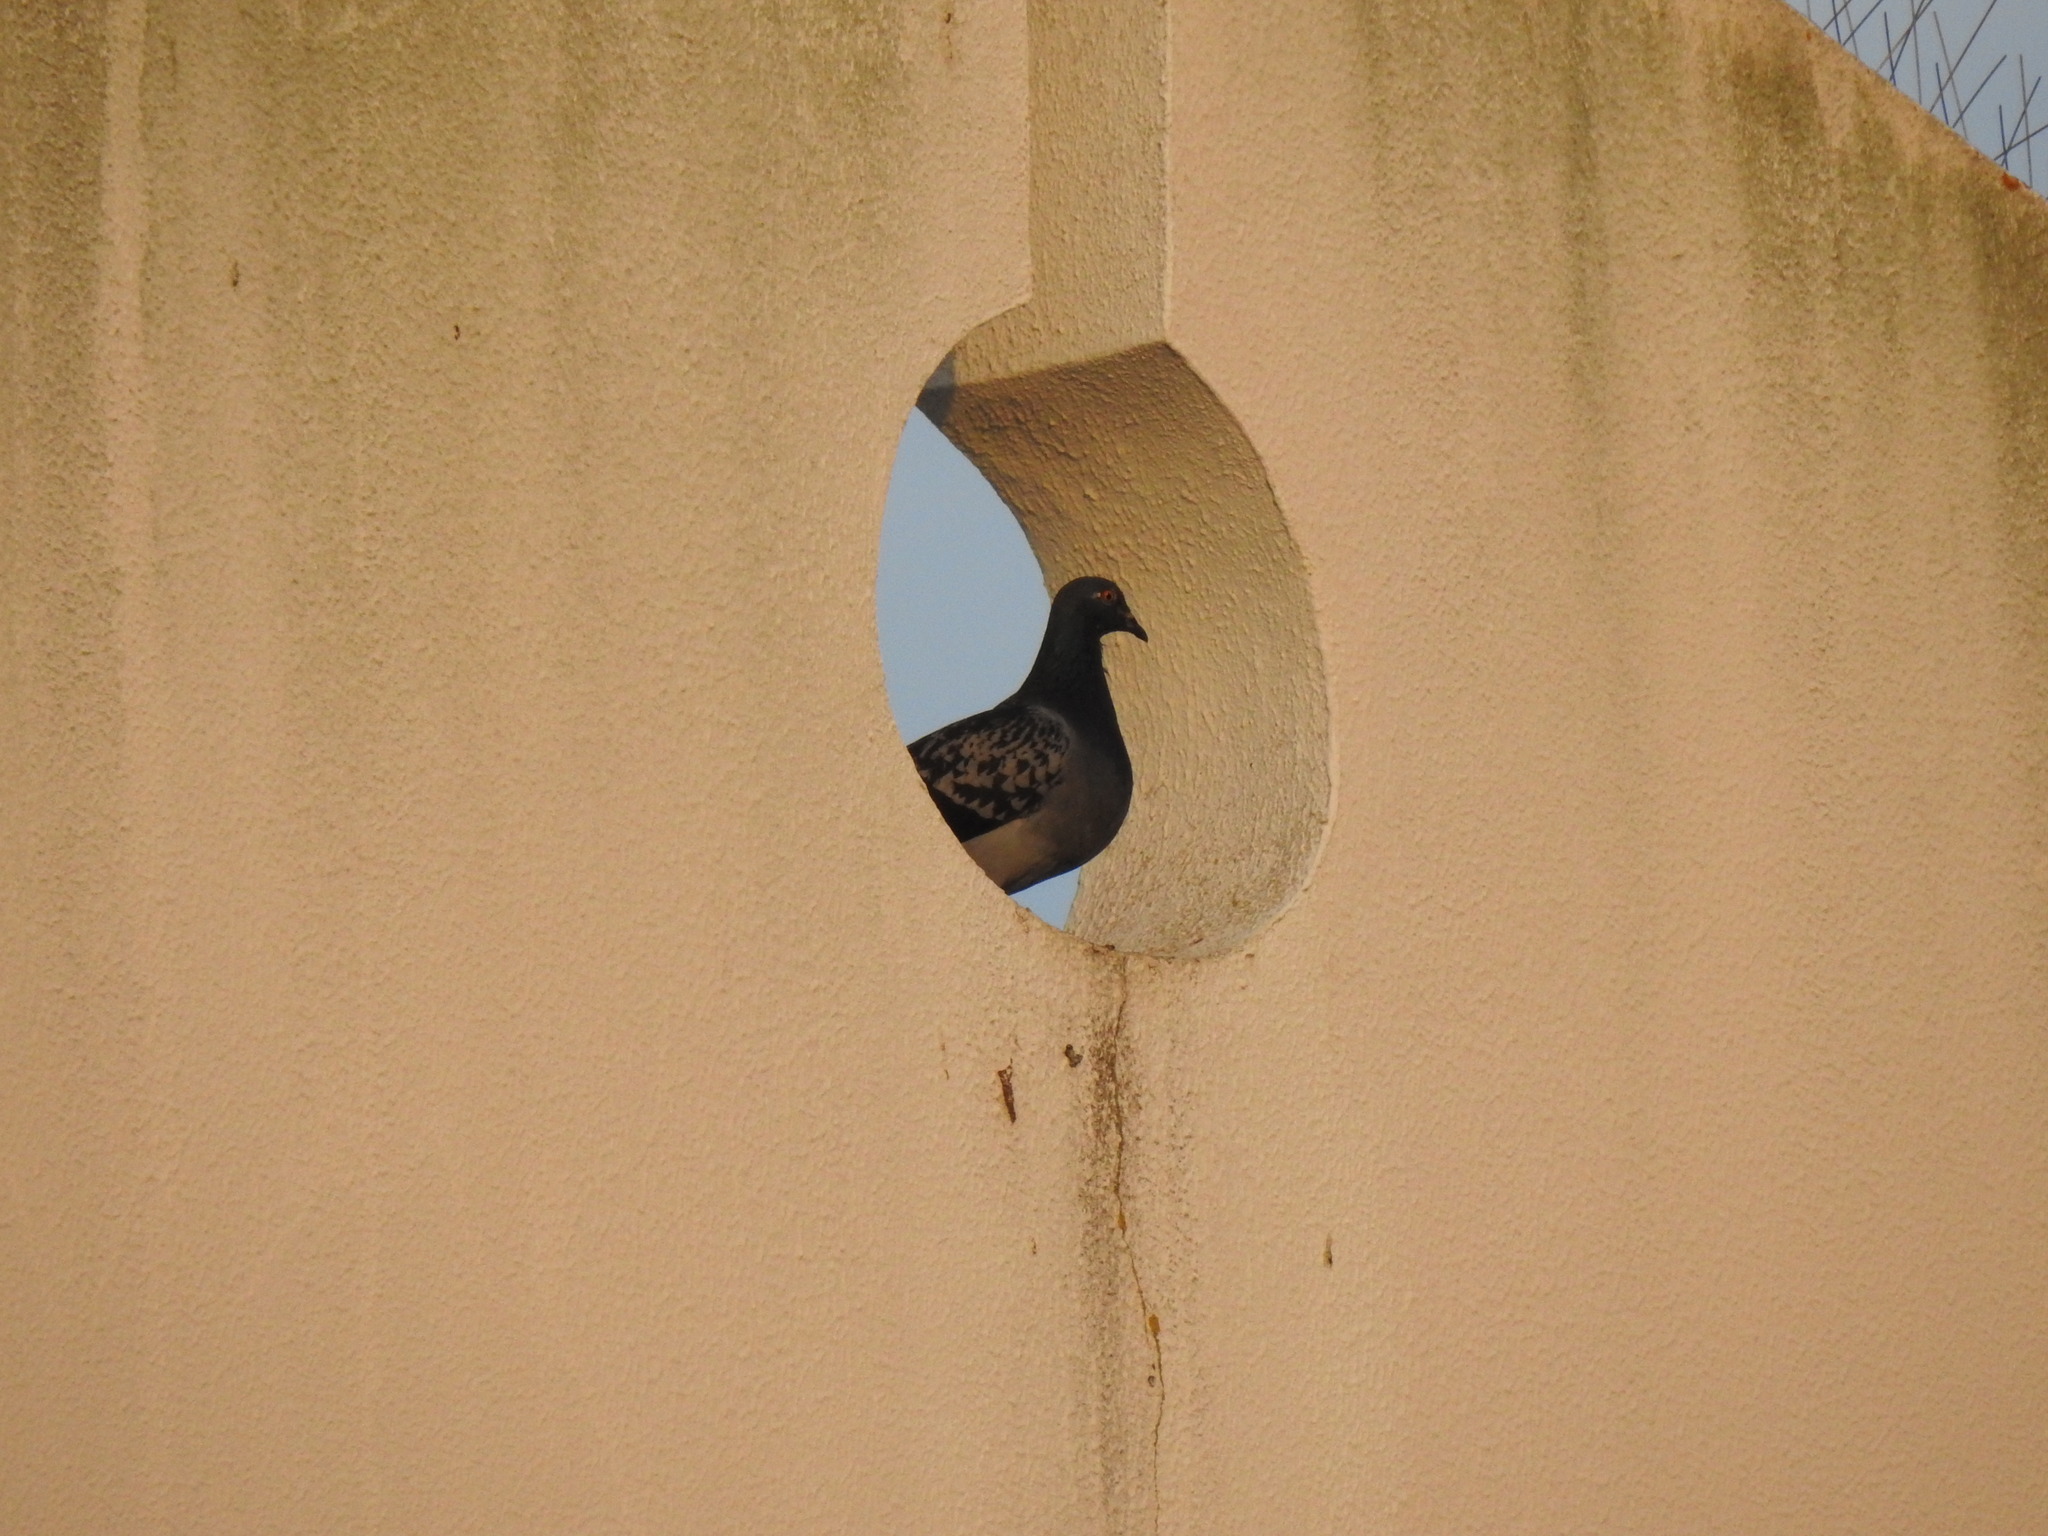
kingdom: Animalia
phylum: Chordata
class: Aves
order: Columbiformes
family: Columbidae
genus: Columba
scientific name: Columba livia
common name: Rock pigeon
